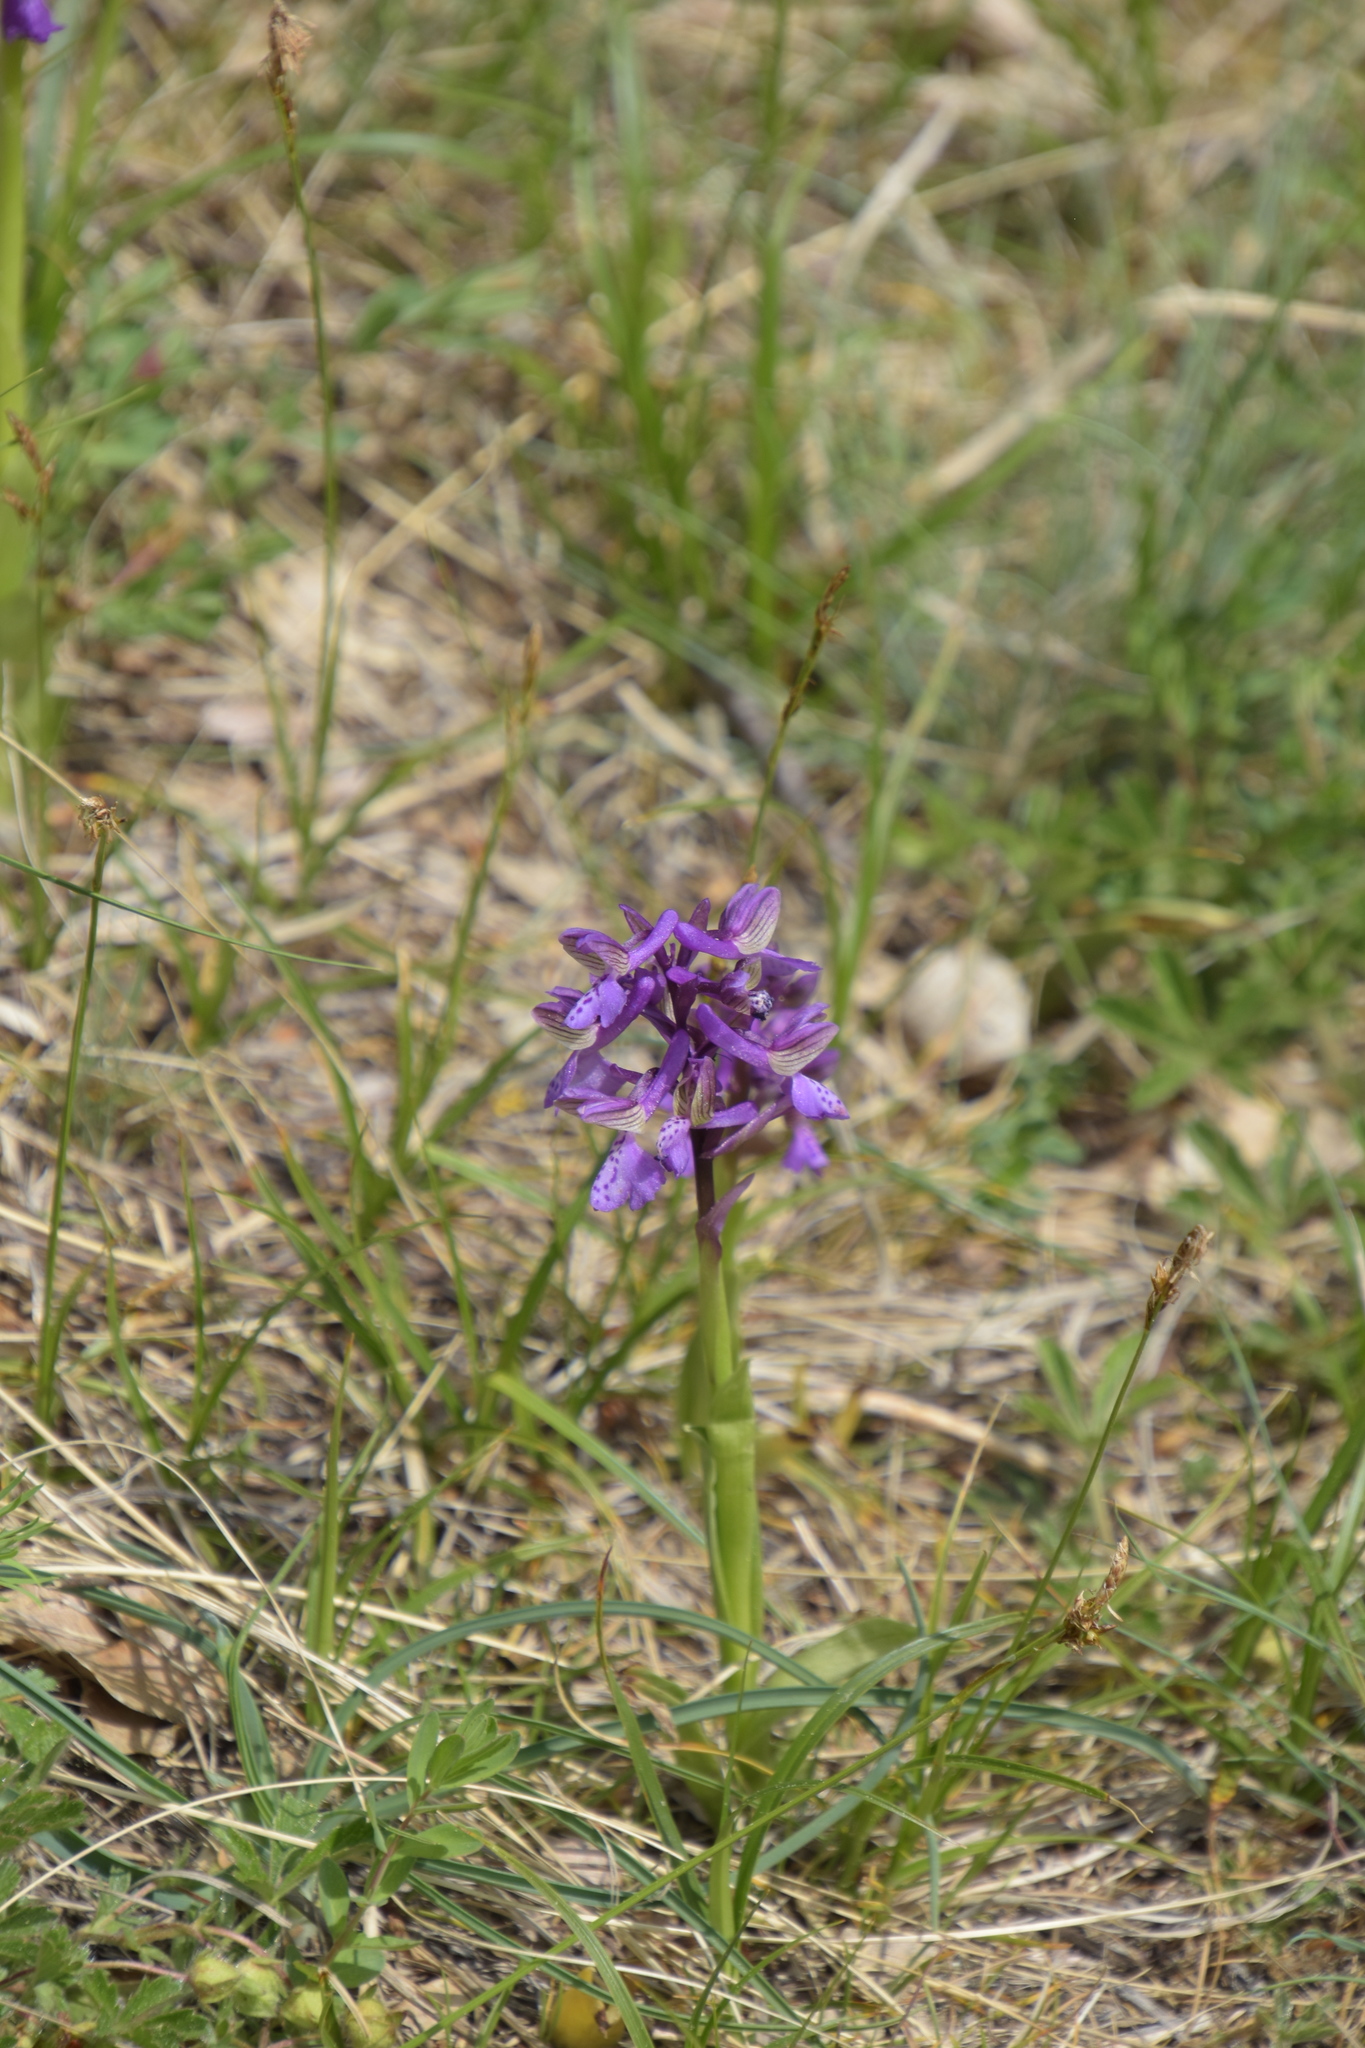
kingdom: Plantae
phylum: Tracheophyta
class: Liliopsida
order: Asparagales
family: Orchidaceae
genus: Anacamptis
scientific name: Anacamptis morio
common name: Green-winged orchid
